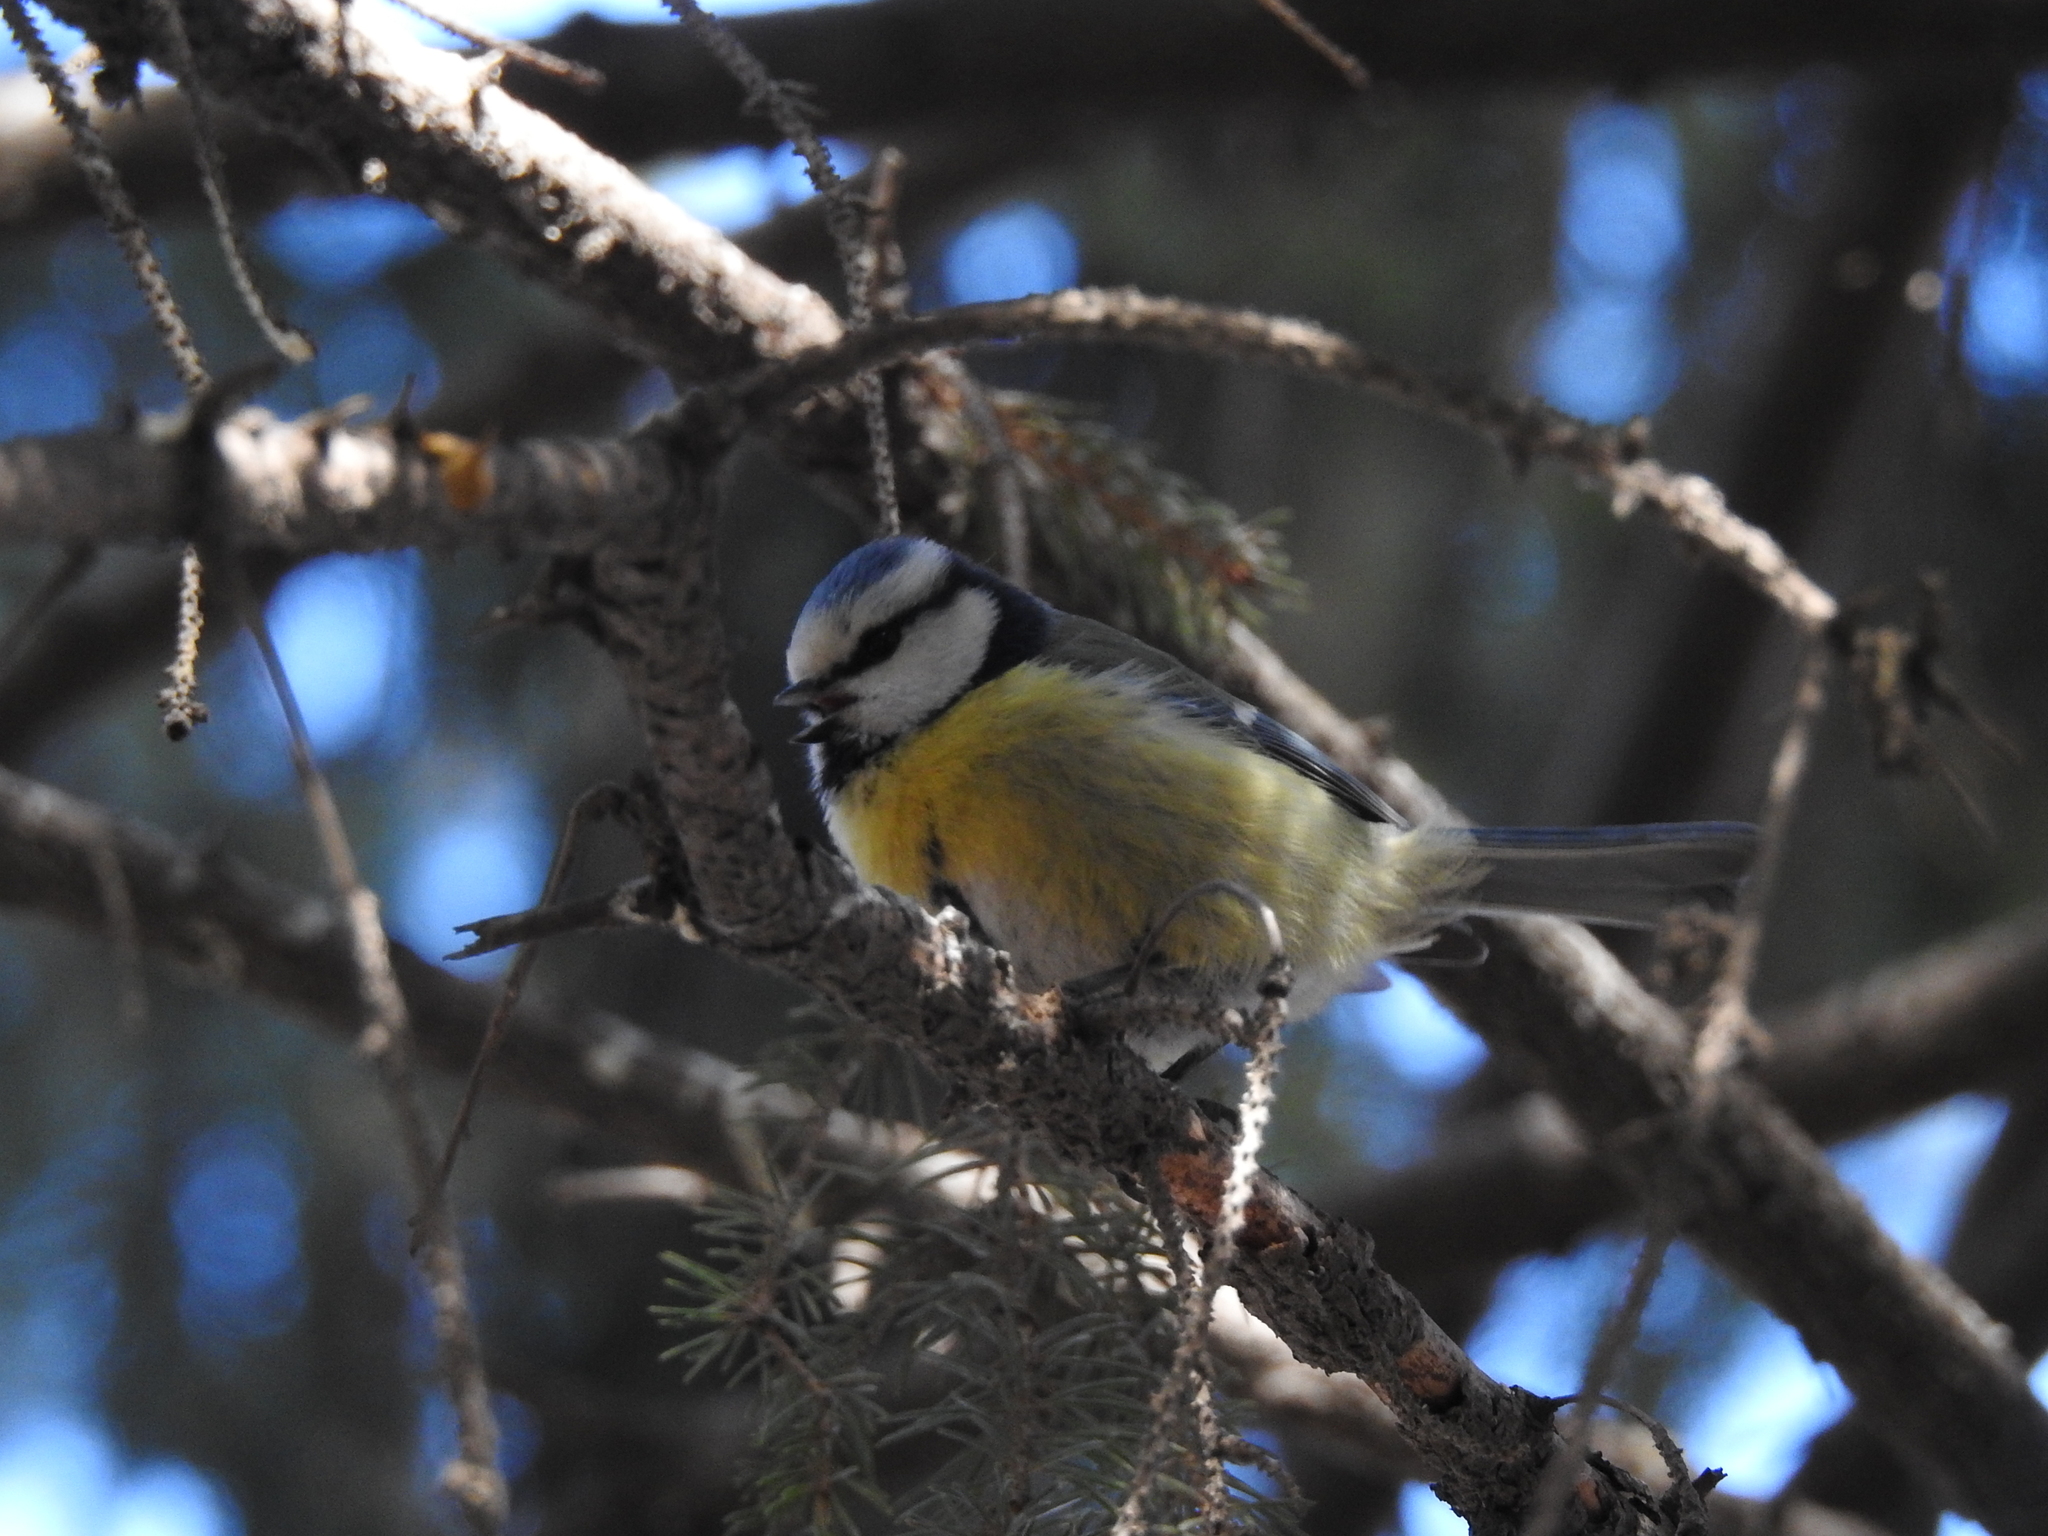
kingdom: Animalia
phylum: Chordata
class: Aves
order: Passeriformes
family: Paridae
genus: Cyanistes
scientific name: Cyanistes caeruleus
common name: Eurasian blue tit
